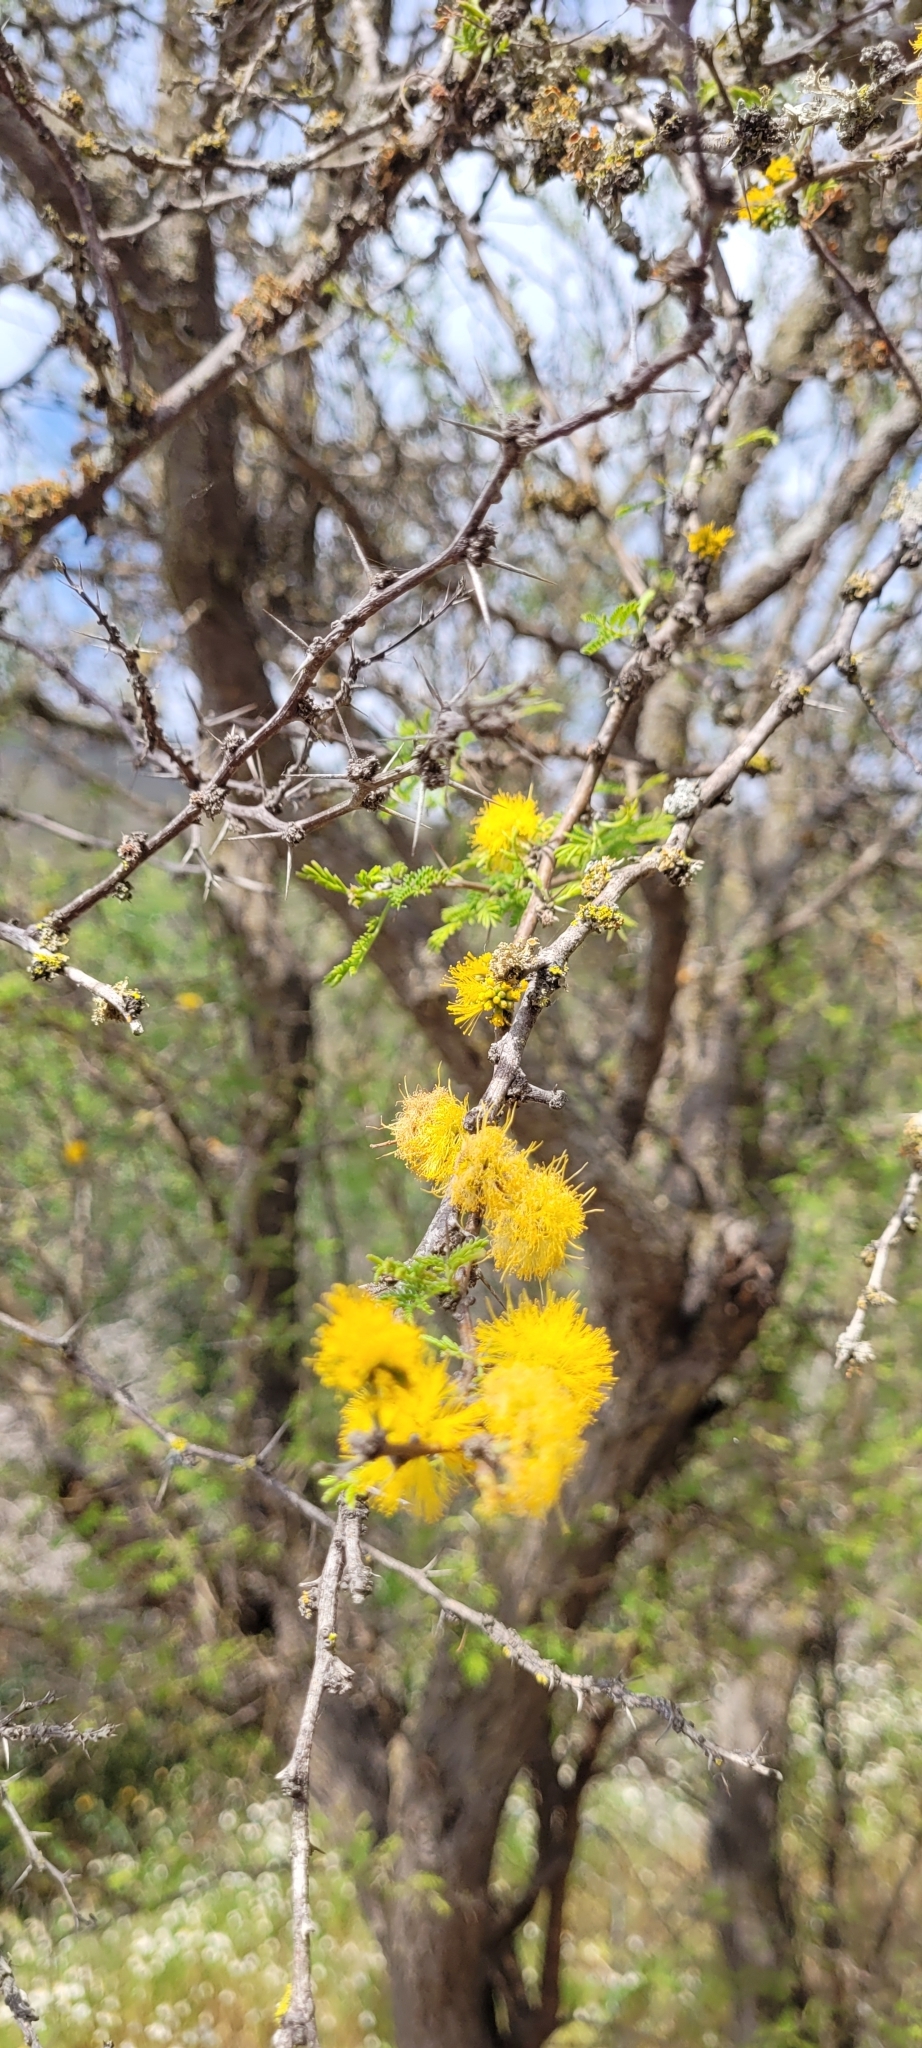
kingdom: Plantae
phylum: Tracheophyta
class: Magnoliopsida
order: Fabales
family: Fabaceae
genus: Vachellia
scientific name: Vachellia caven
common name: Roman cassie
